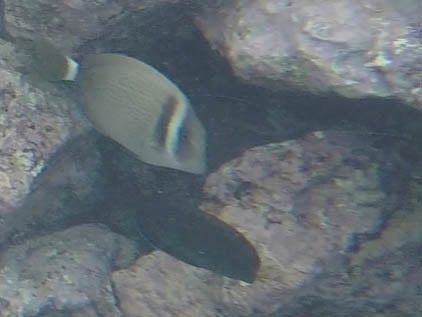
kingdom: Animalia
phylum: Chordata
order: Perciformes
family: Acanthuridae
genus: Acanthurus
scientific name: Acanthurus leucopareius
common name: Head-band surgeonfish
